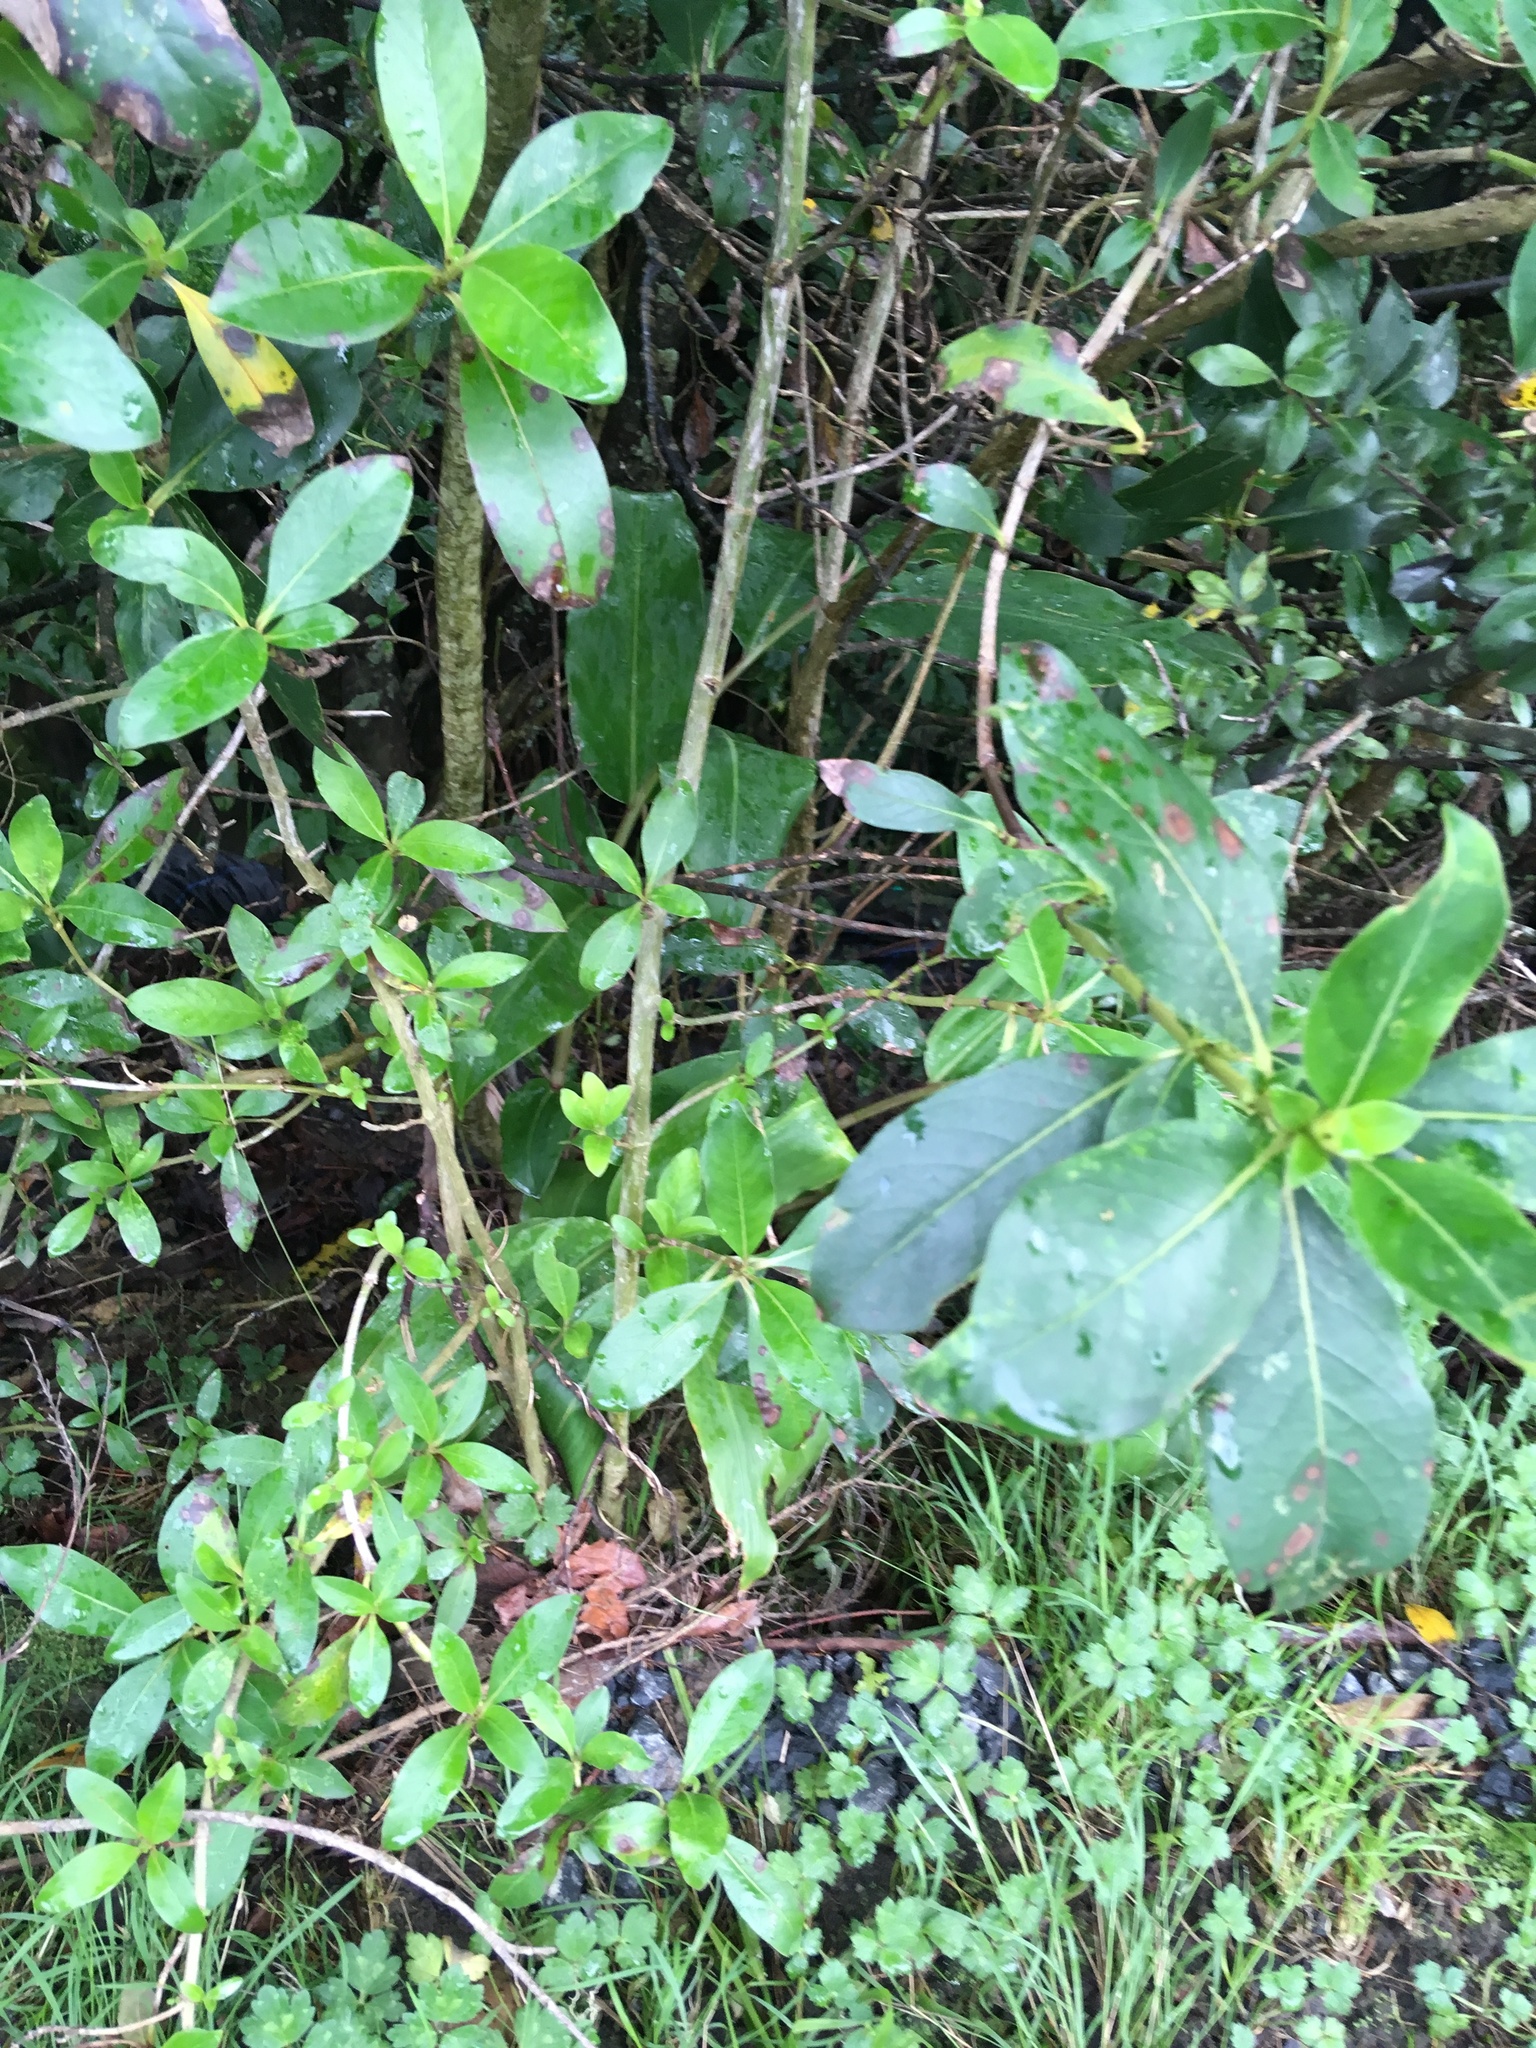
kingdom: Plantae
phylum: Tracheophyta
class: Magnoliopsida
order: Gentianales
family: Rubiaceae
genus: Coprosma
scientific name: Coprosma robusta
